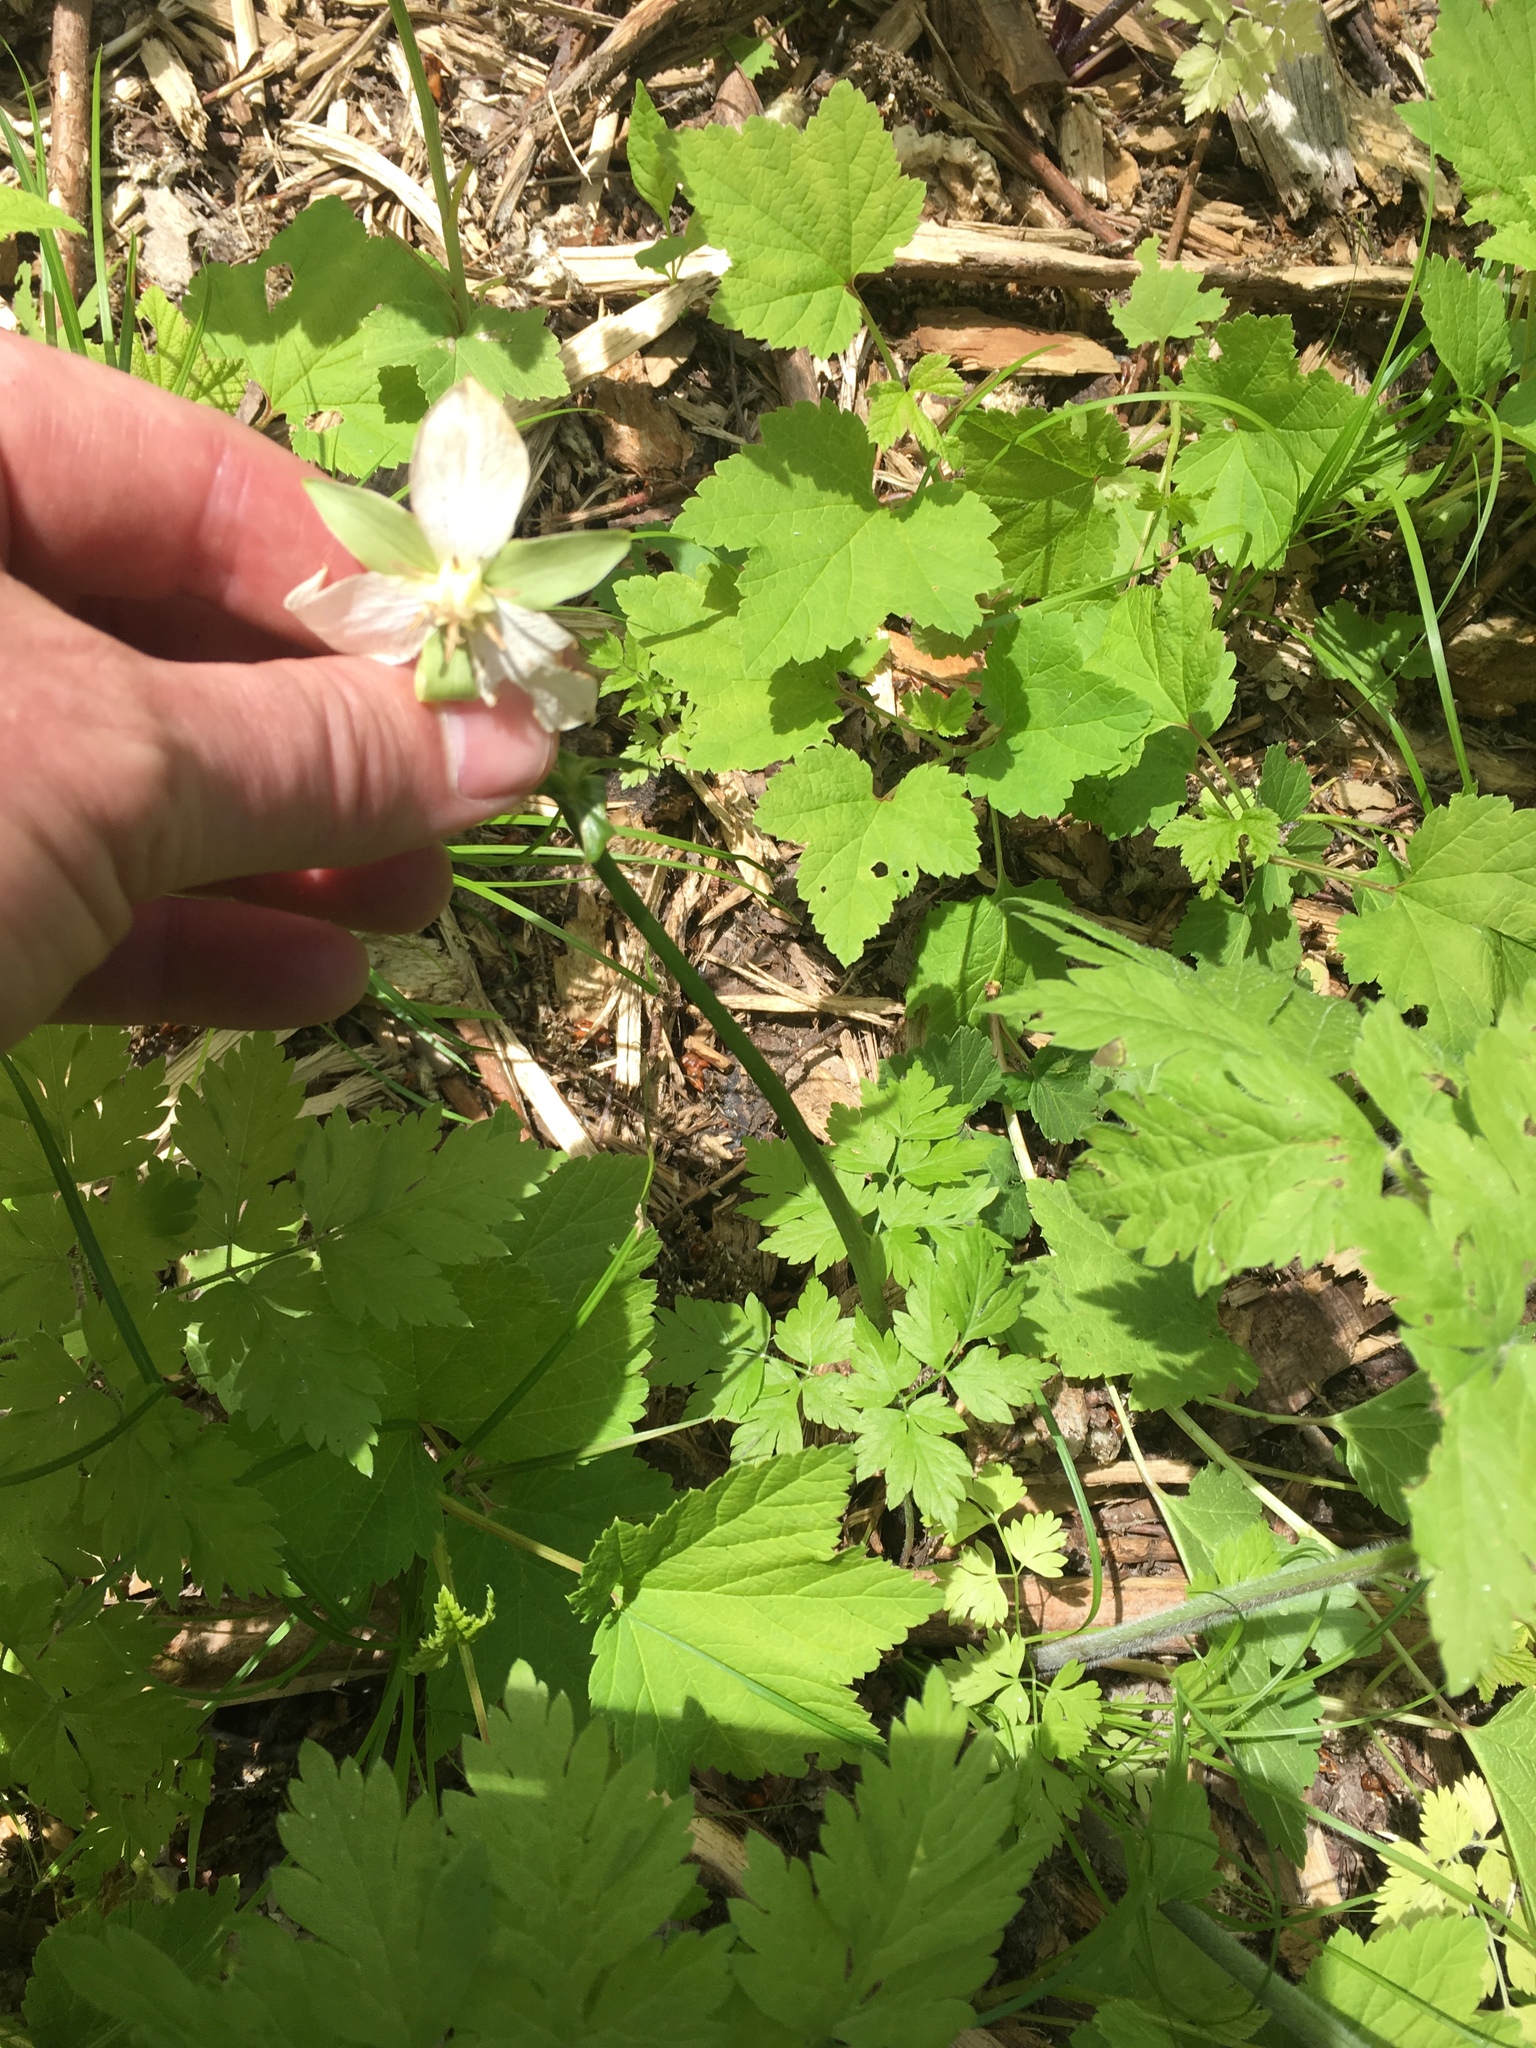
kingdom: Plantae
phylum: Tracheophyta
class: Liliopsida
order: Liliales
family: Melanthiaceae
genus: Trillium
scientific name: Trillium cernuum
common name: Nodding trillium
